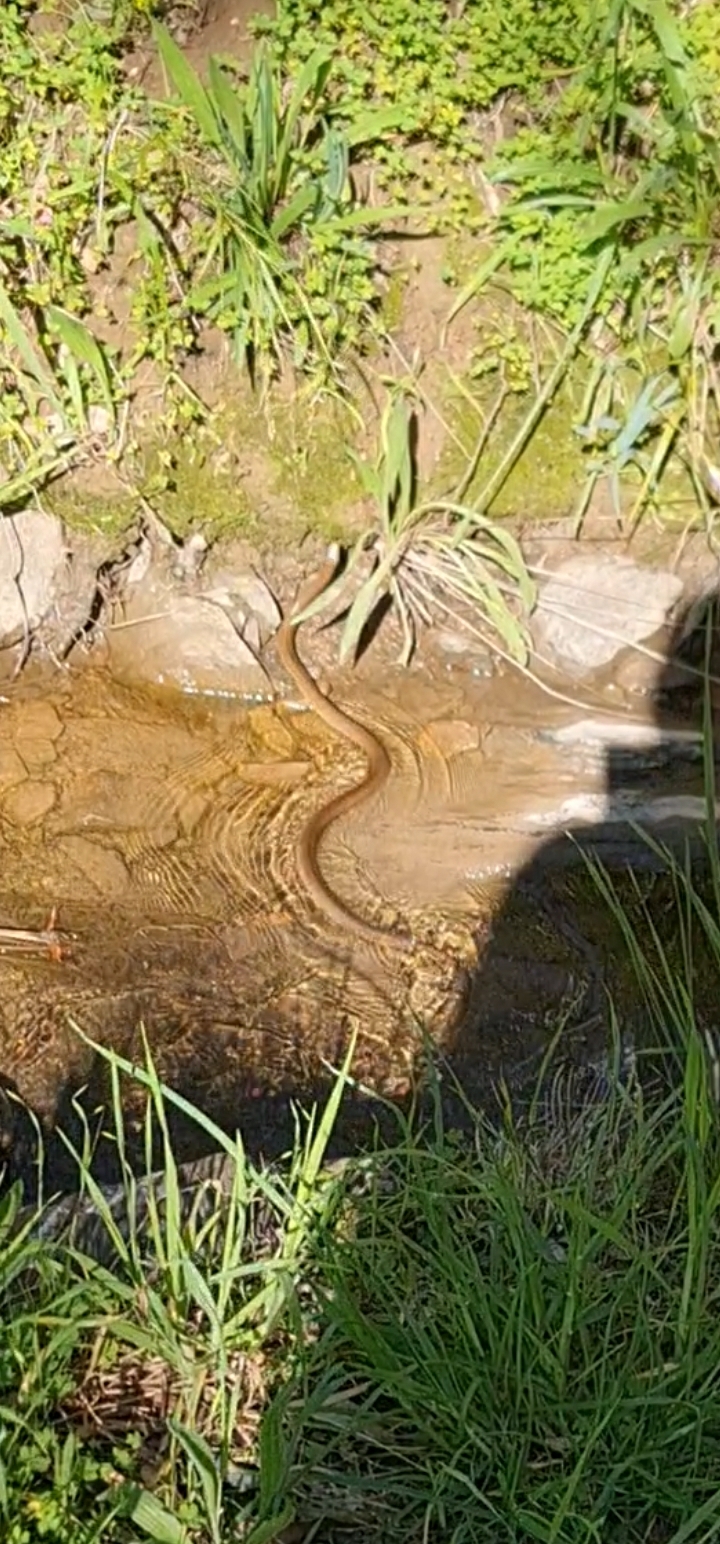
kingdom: Animalia
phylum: Chordata
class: Squamata
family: Elapidae
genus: Pseudonaja
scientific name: Pseudonaja textilis
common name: Eastern brown snake
